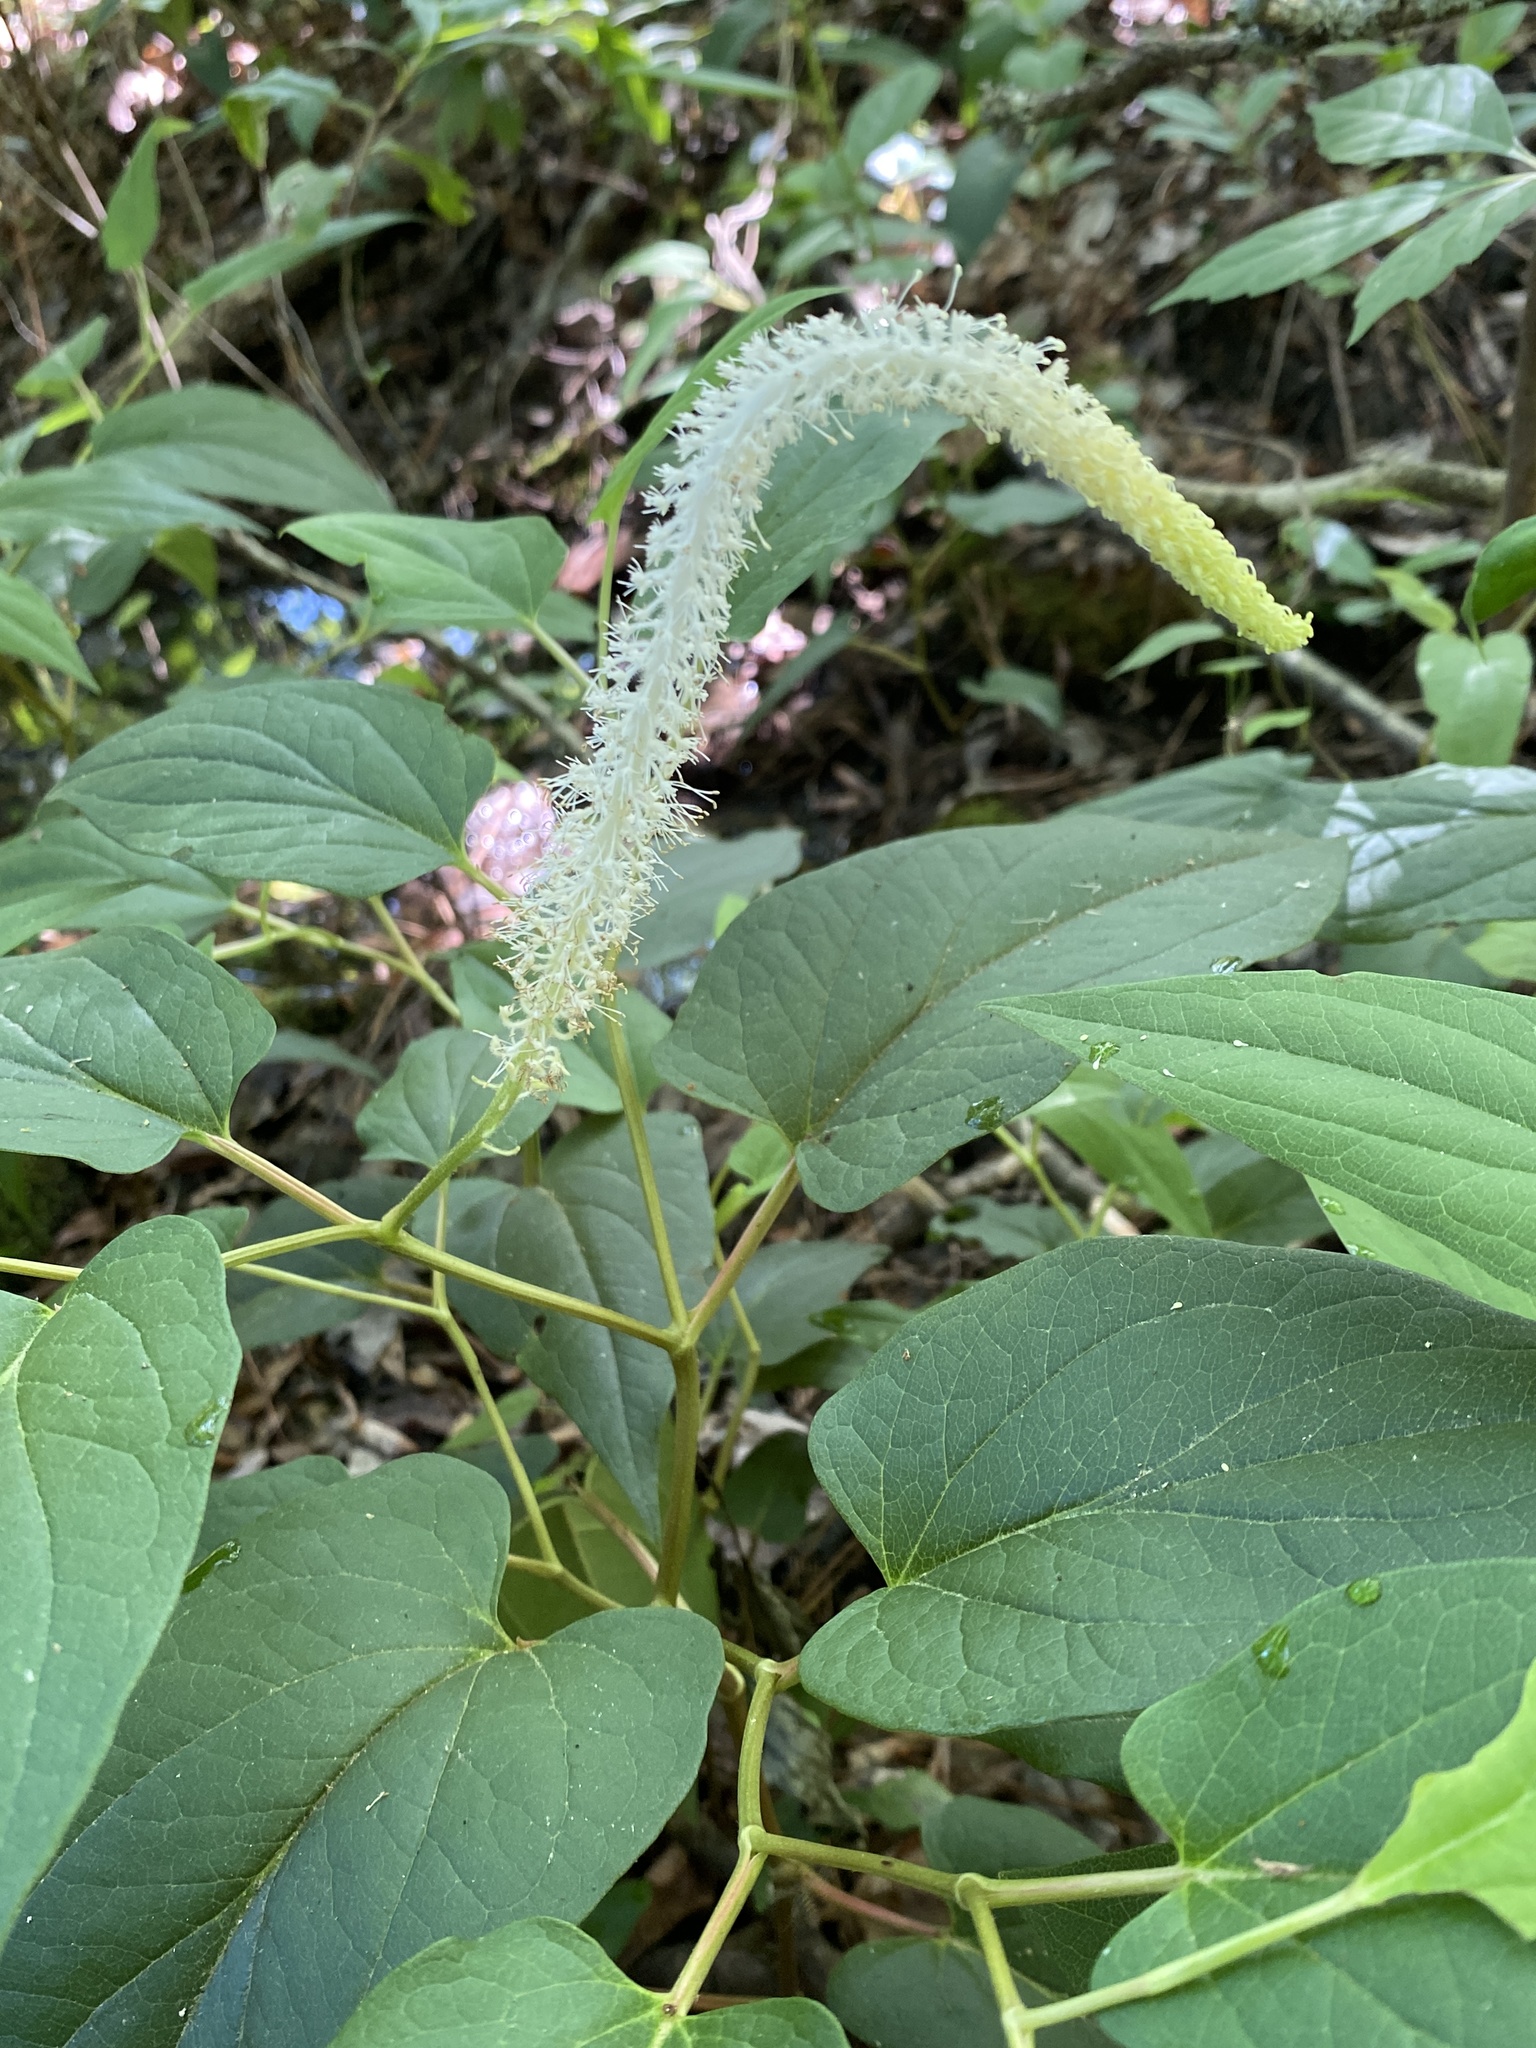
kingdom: Plantae
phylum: Tracheophyta
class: Magnoliopsida
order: Piperales
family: Saururaceae
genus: Saururus
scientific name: Saururus cernuus
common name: Lizard's-tail
